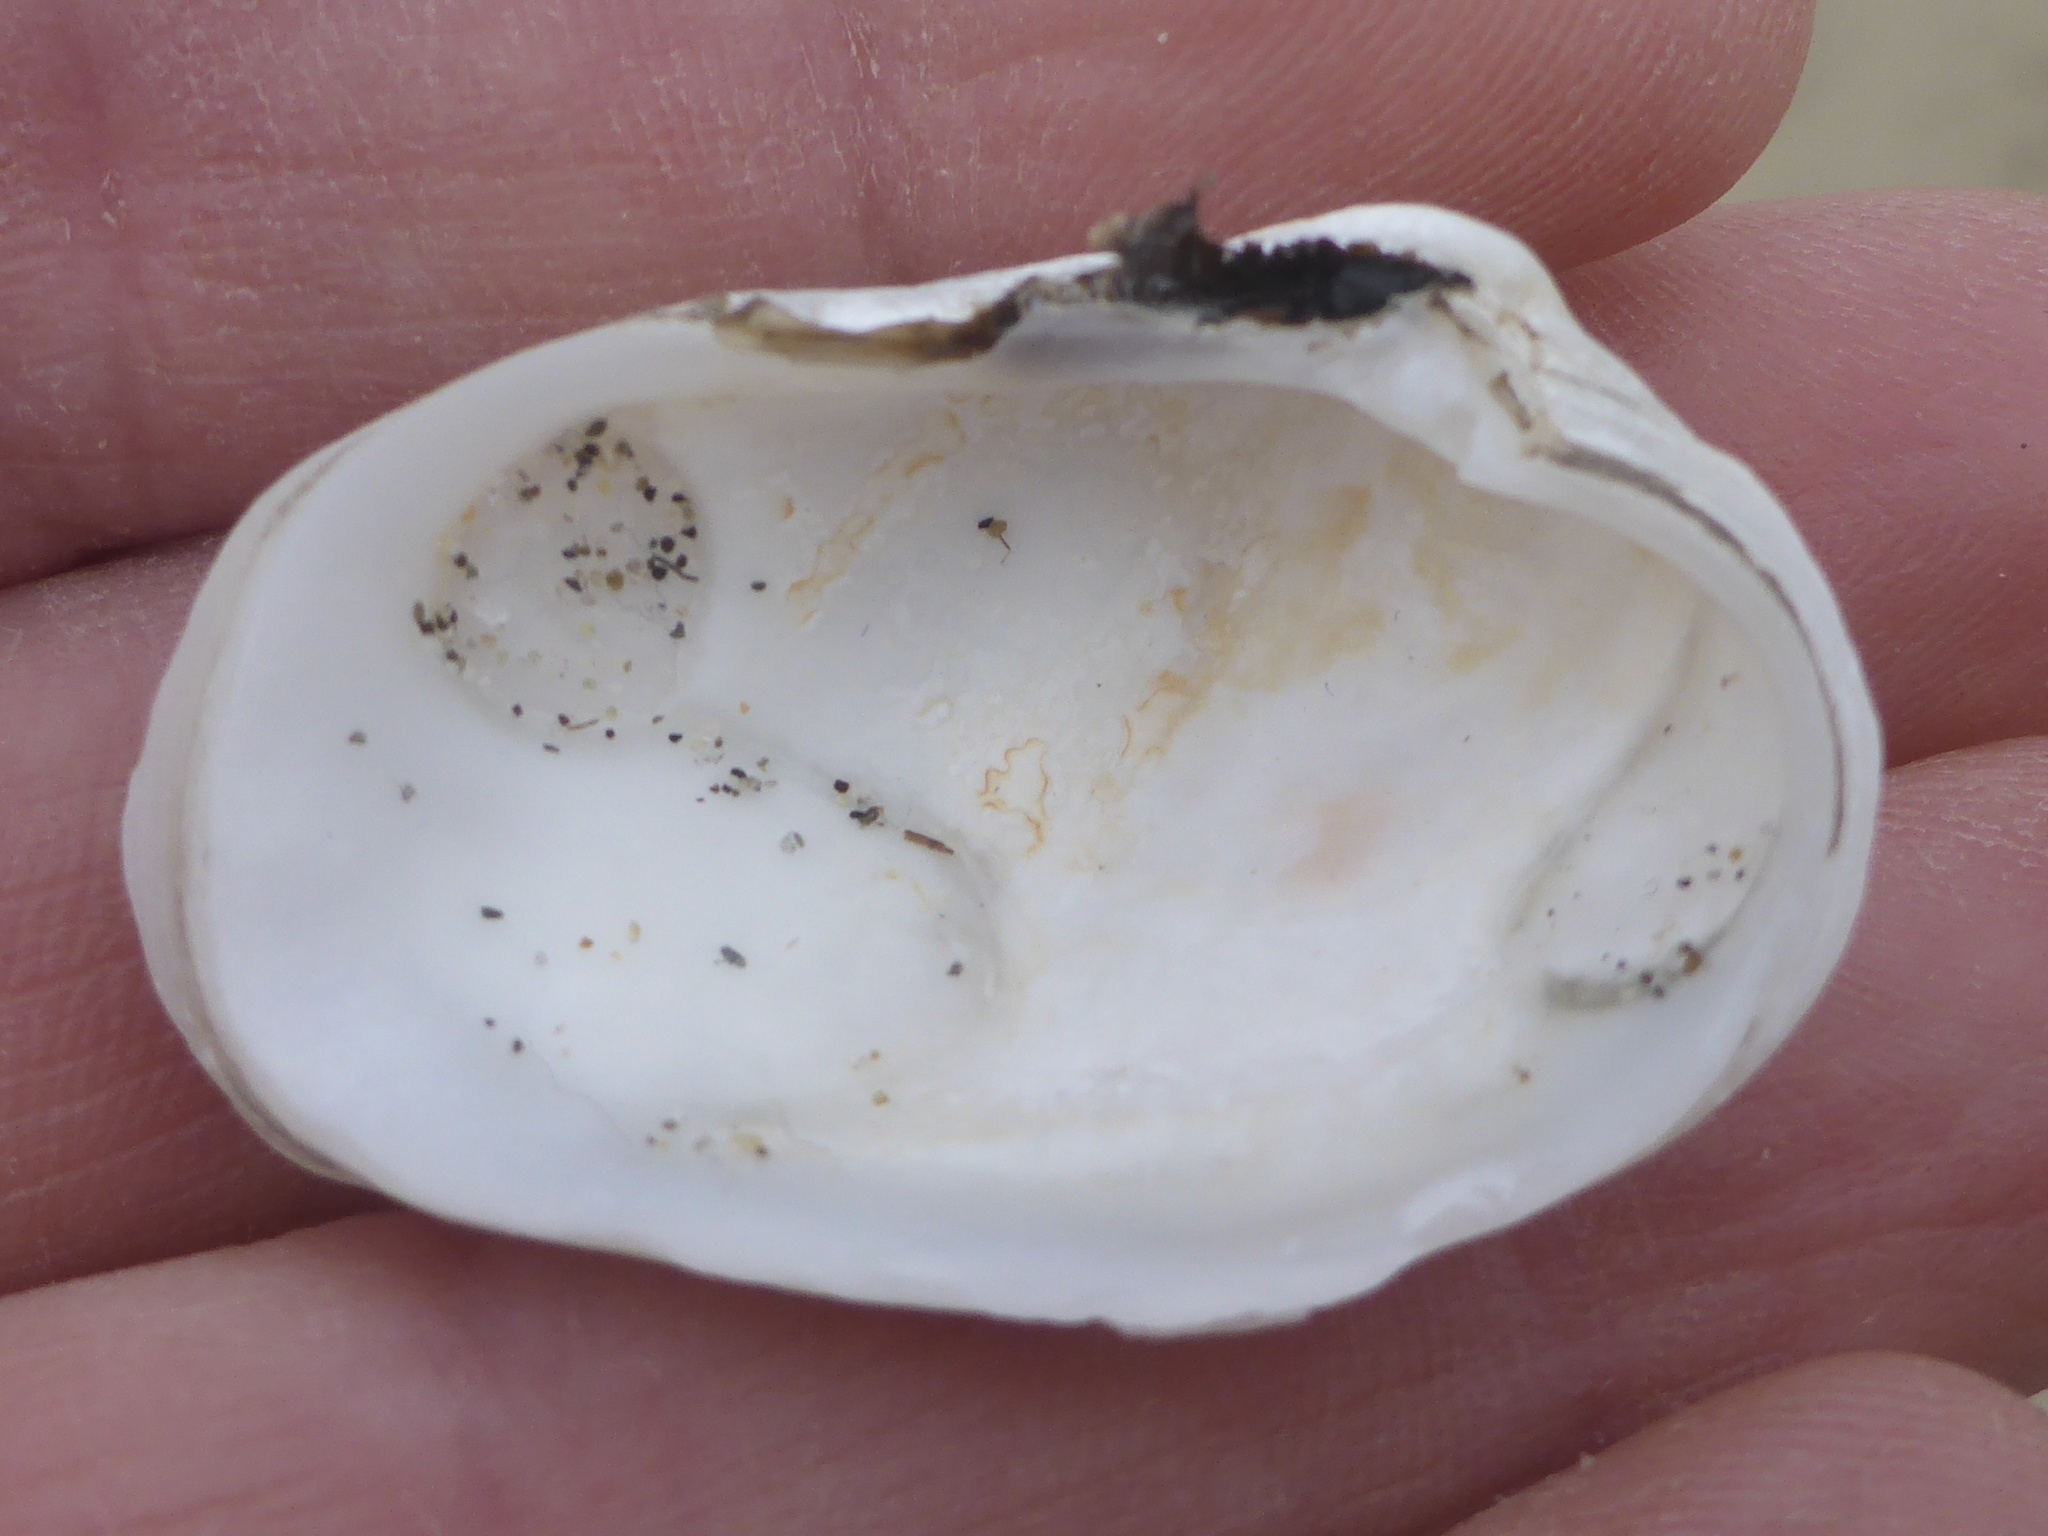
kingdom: Animalia
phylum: Mollusca
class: Bivalvia
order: Venerida
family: Veneridae
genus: Petricola
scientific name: Petricola carditoides
